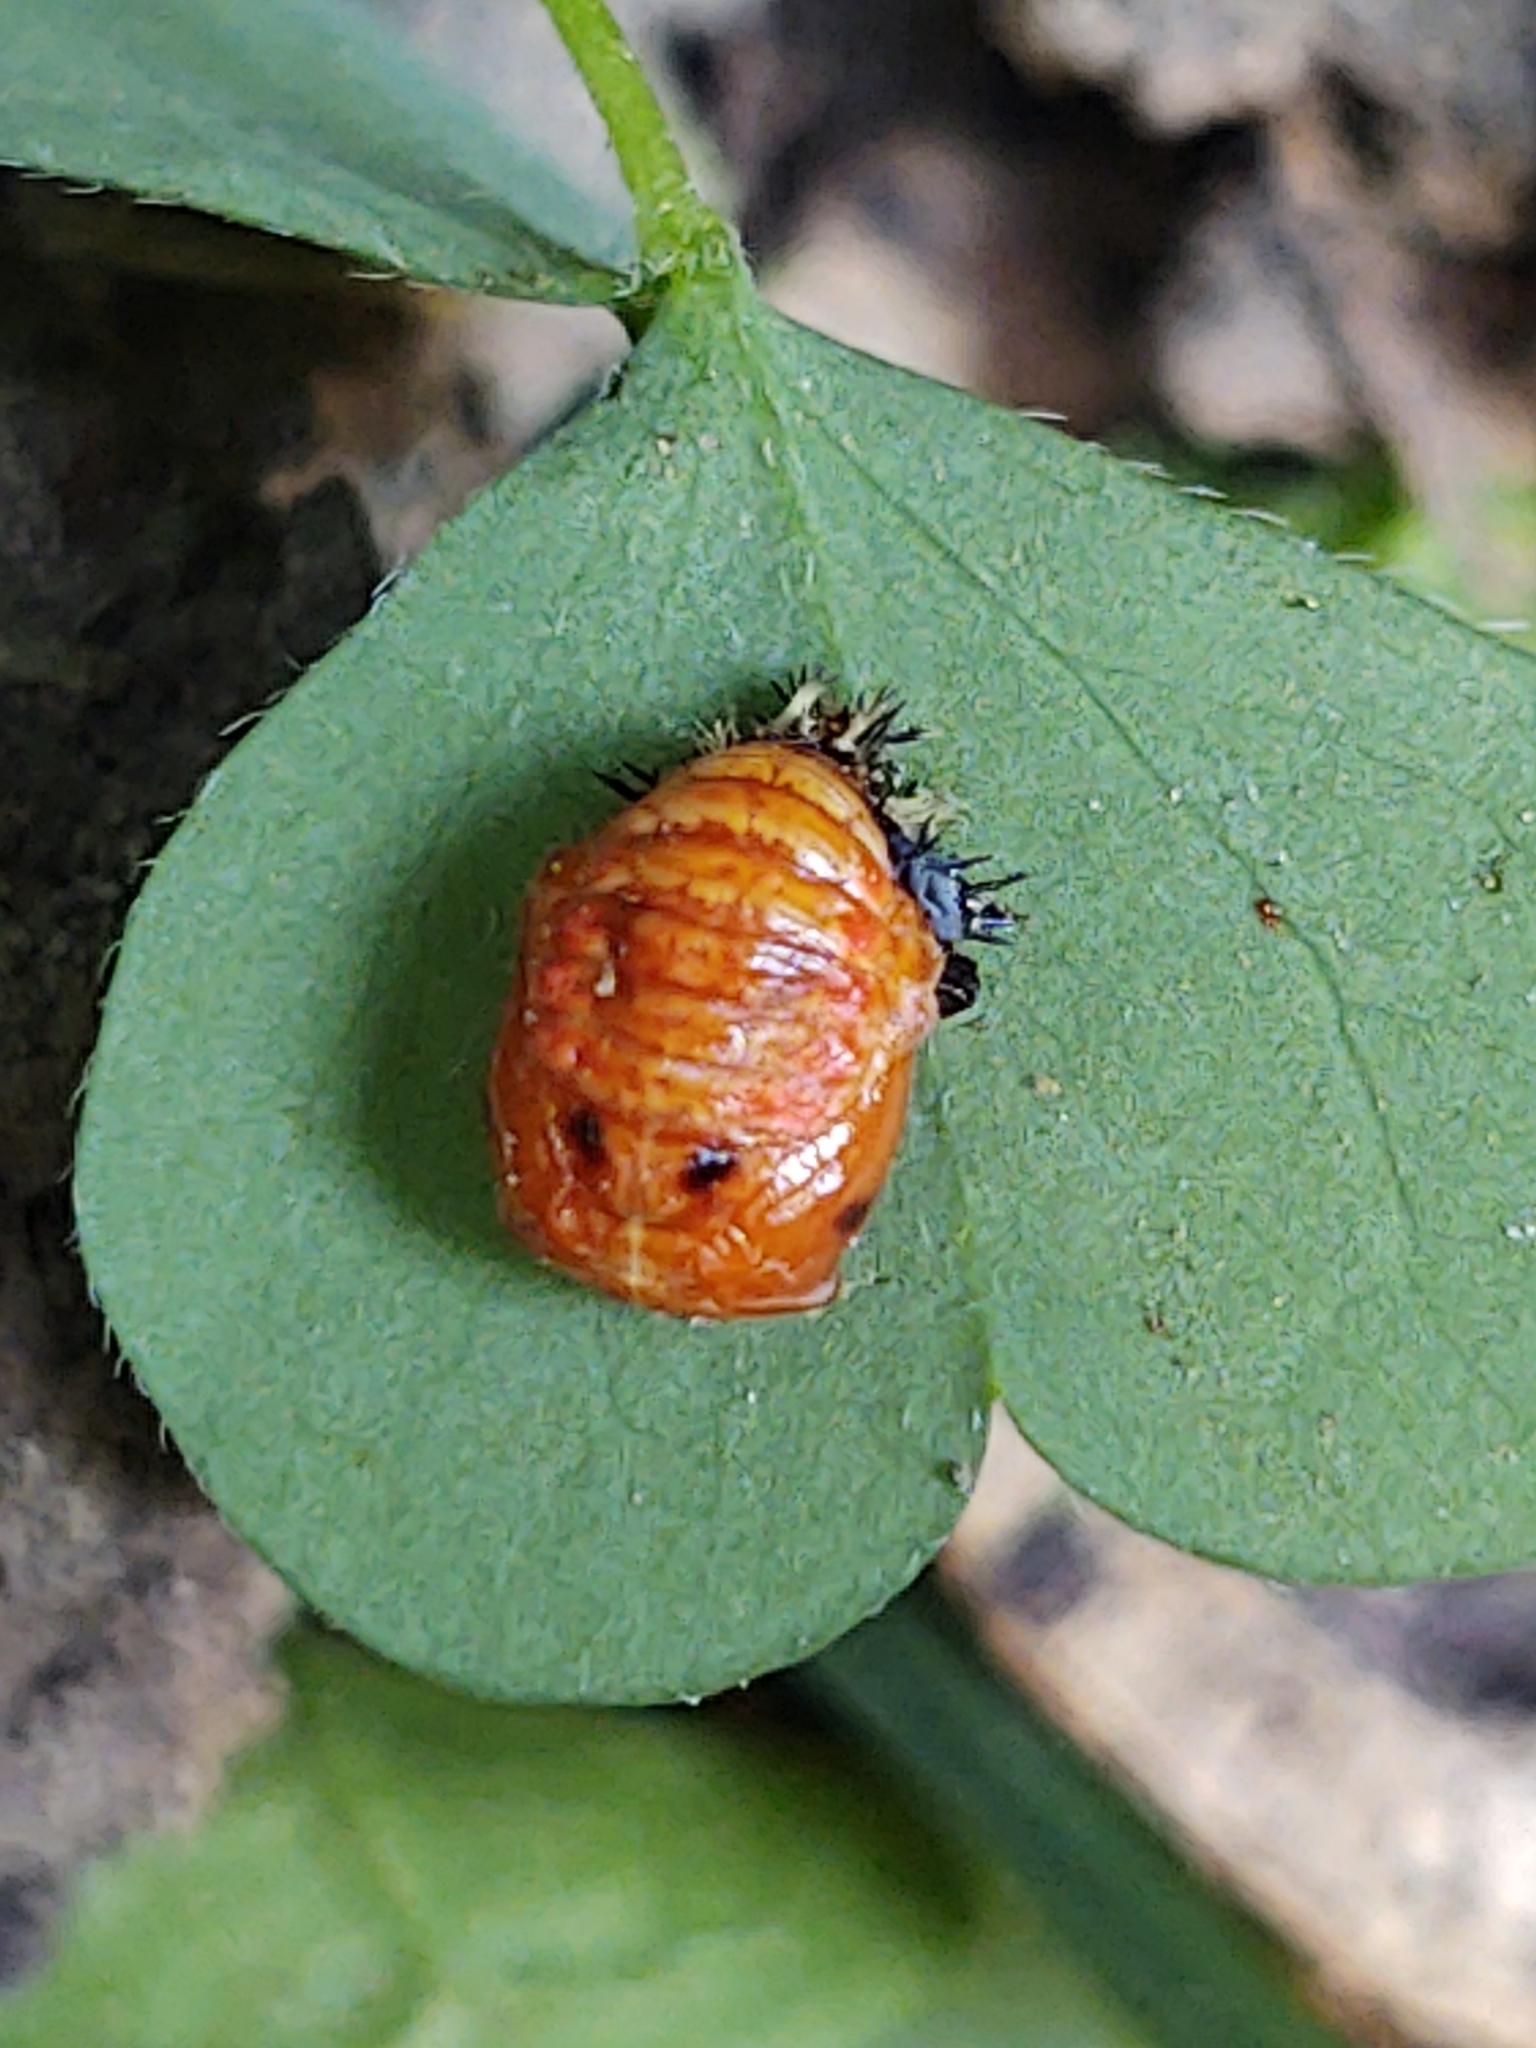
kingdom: Animalia
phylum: Arthropoda
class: Insecta
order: Coleoptera
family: Coccinellidae
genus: Harmonia
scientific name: Harmonia axyridis
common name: Harlequin ladybird
